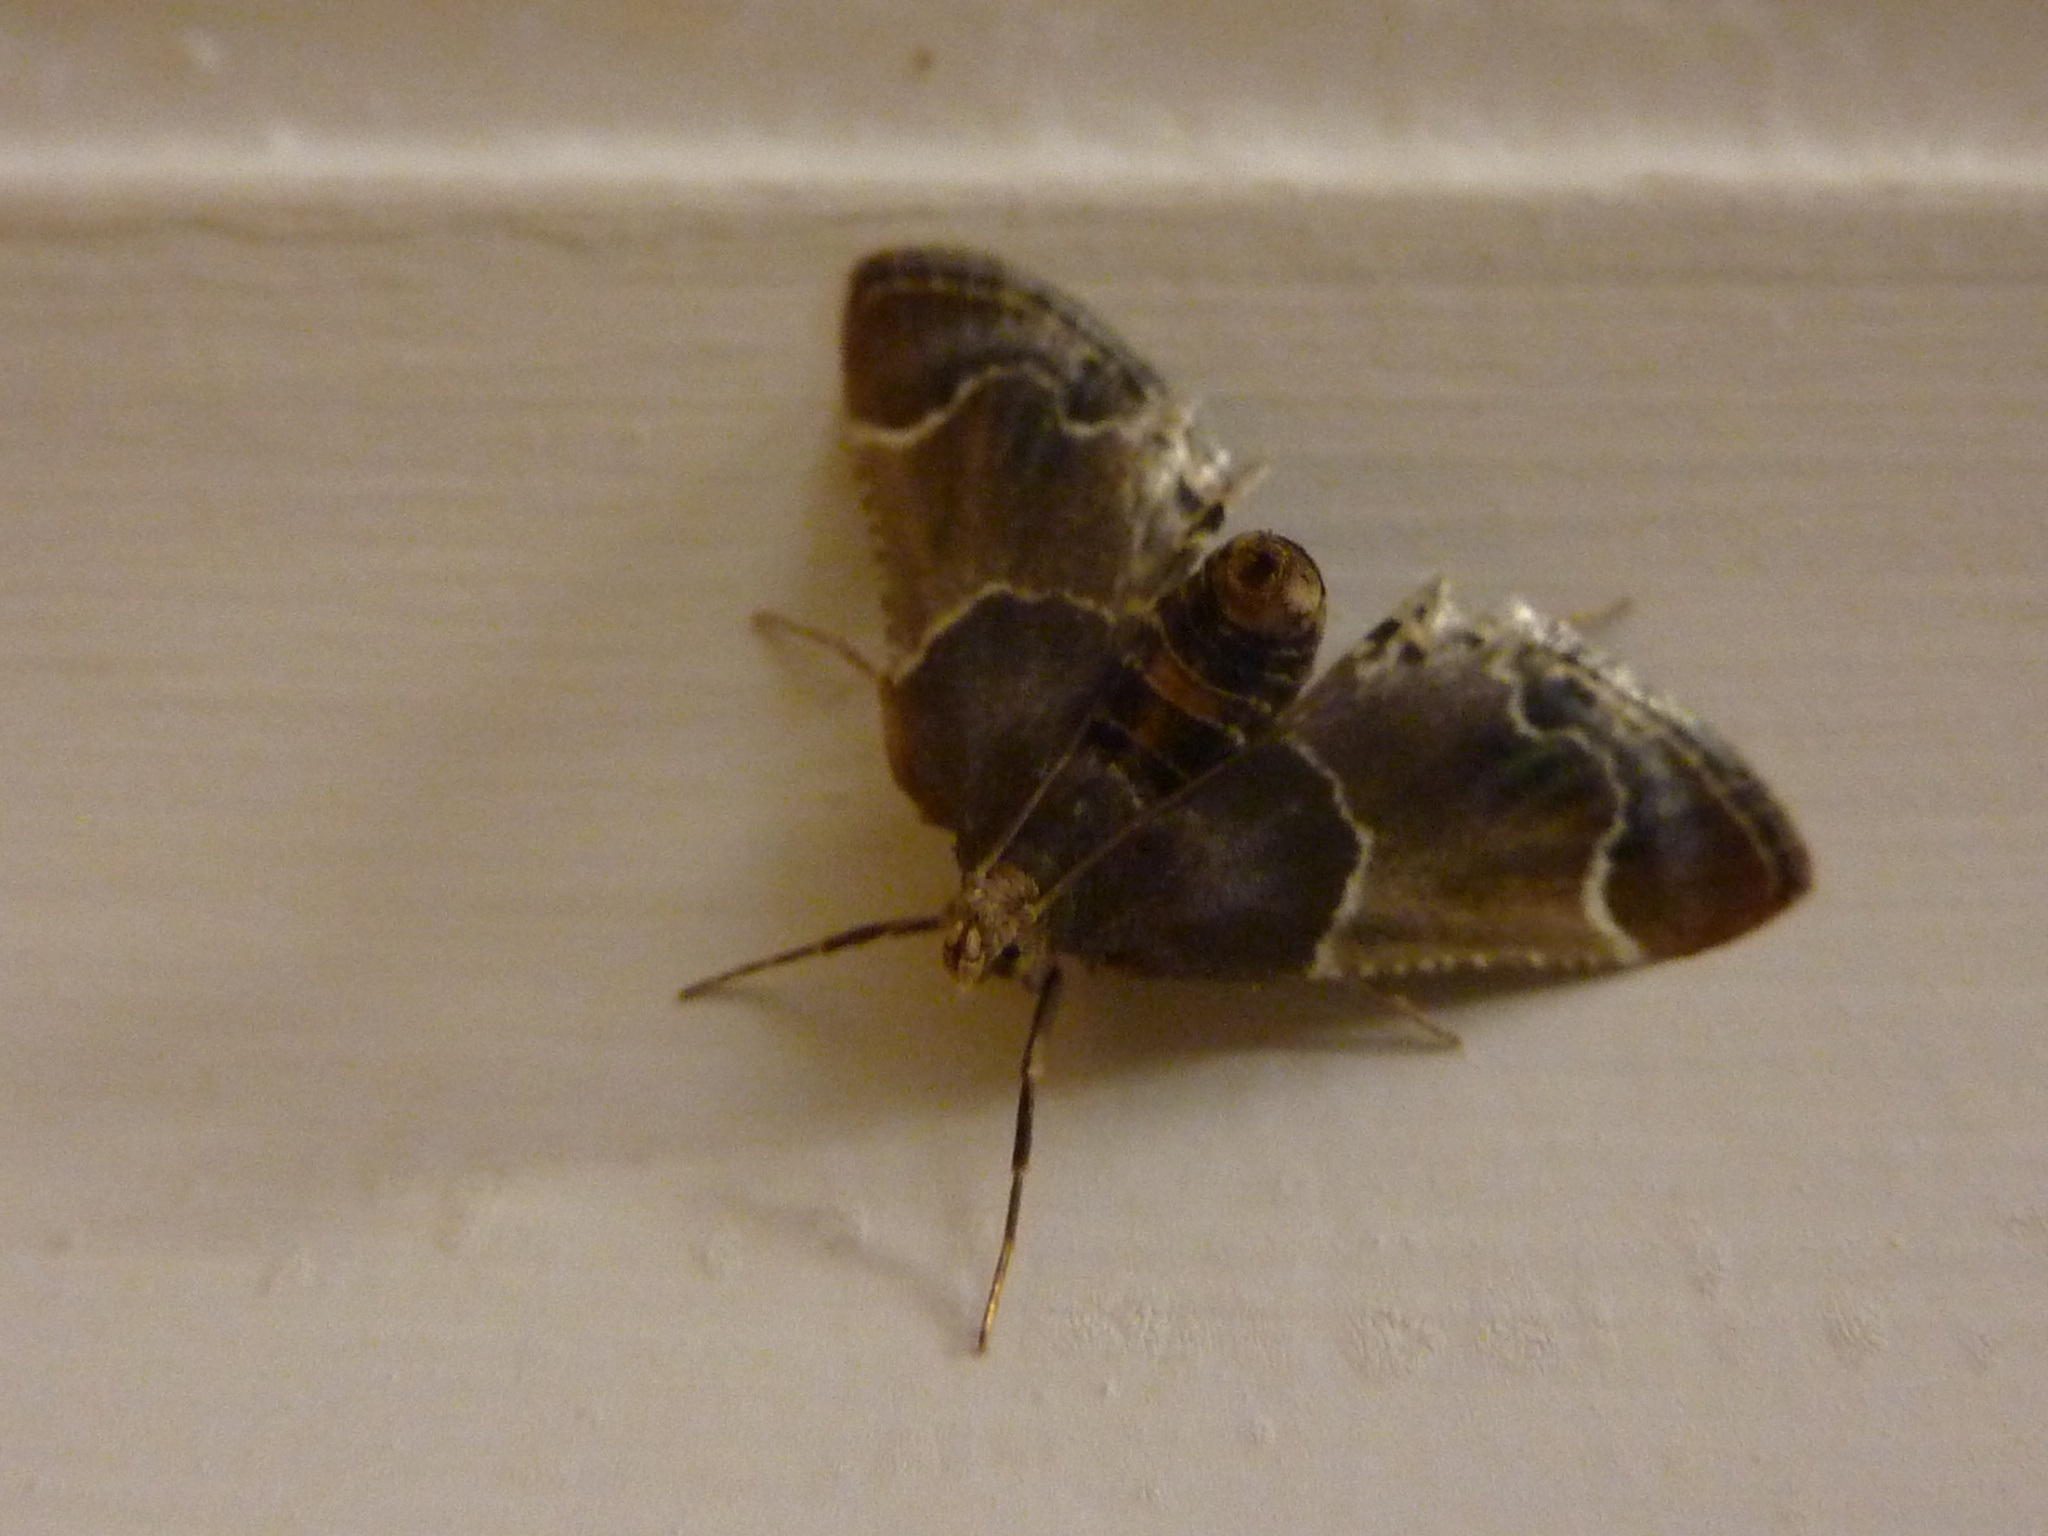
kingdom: Animalia
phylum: Arthropoda
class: Insecta
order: Lepidoptera
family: Pyralidae
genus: Pyralis
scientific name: Pyralis farinalis
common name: Meal moth
